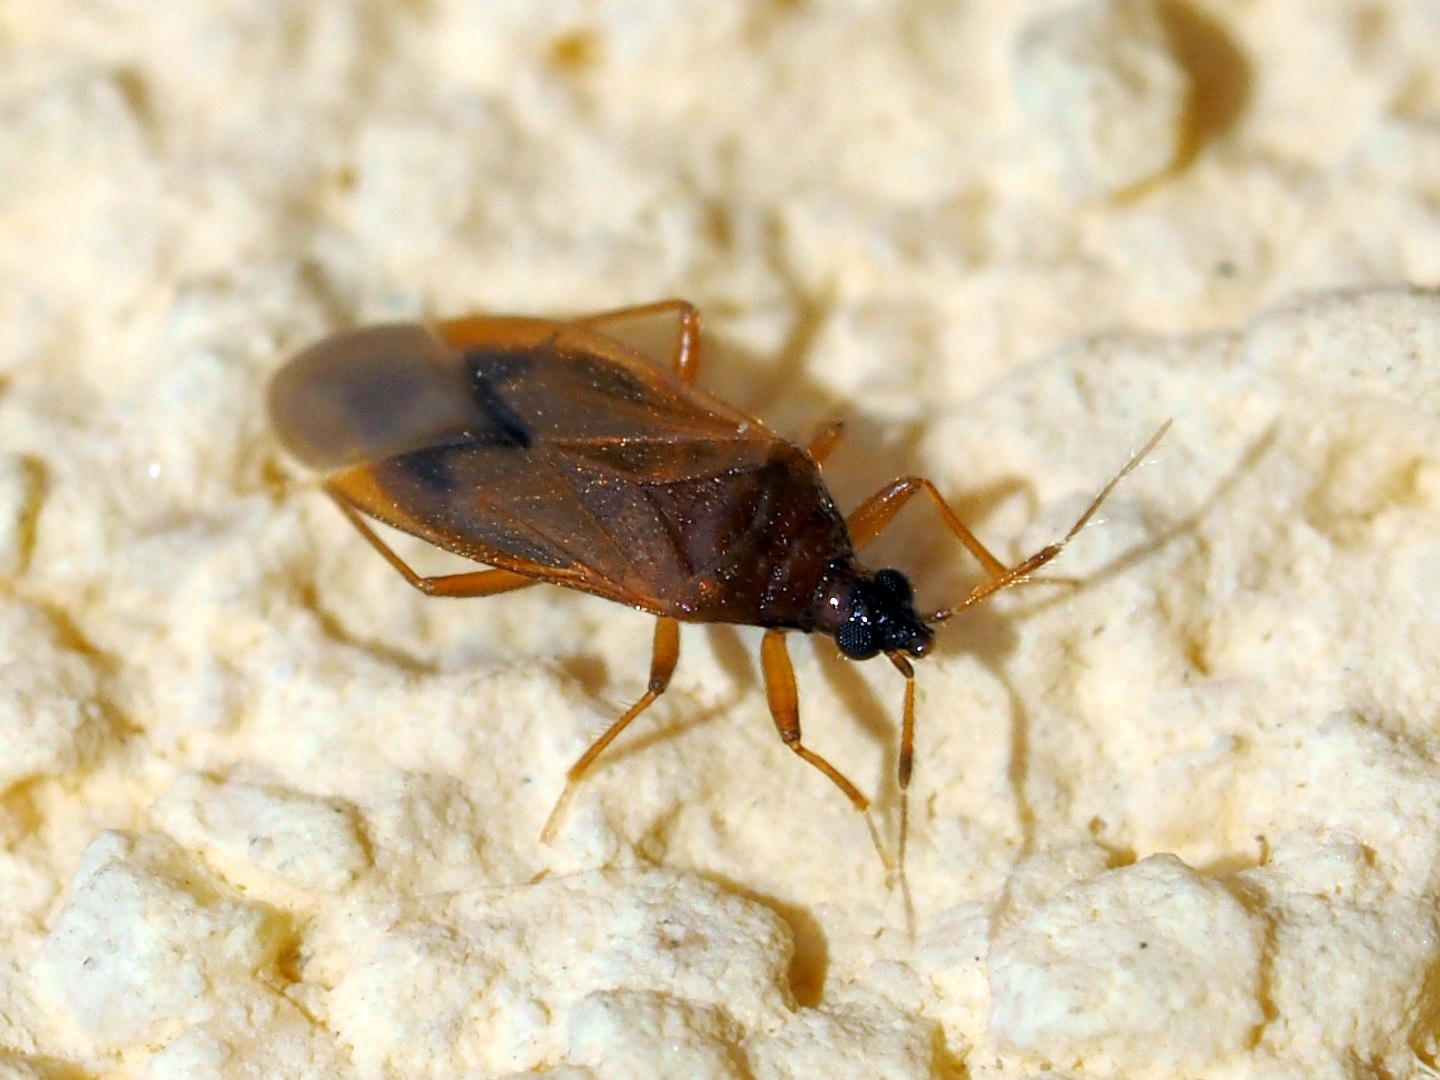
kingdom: Animalia
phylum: Arthropoda
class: Insecta
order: Hemiptera
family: Anthocoridae
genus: Amphiareus
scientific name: Amphiareus obscuriceps
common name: Minute pirate bug
